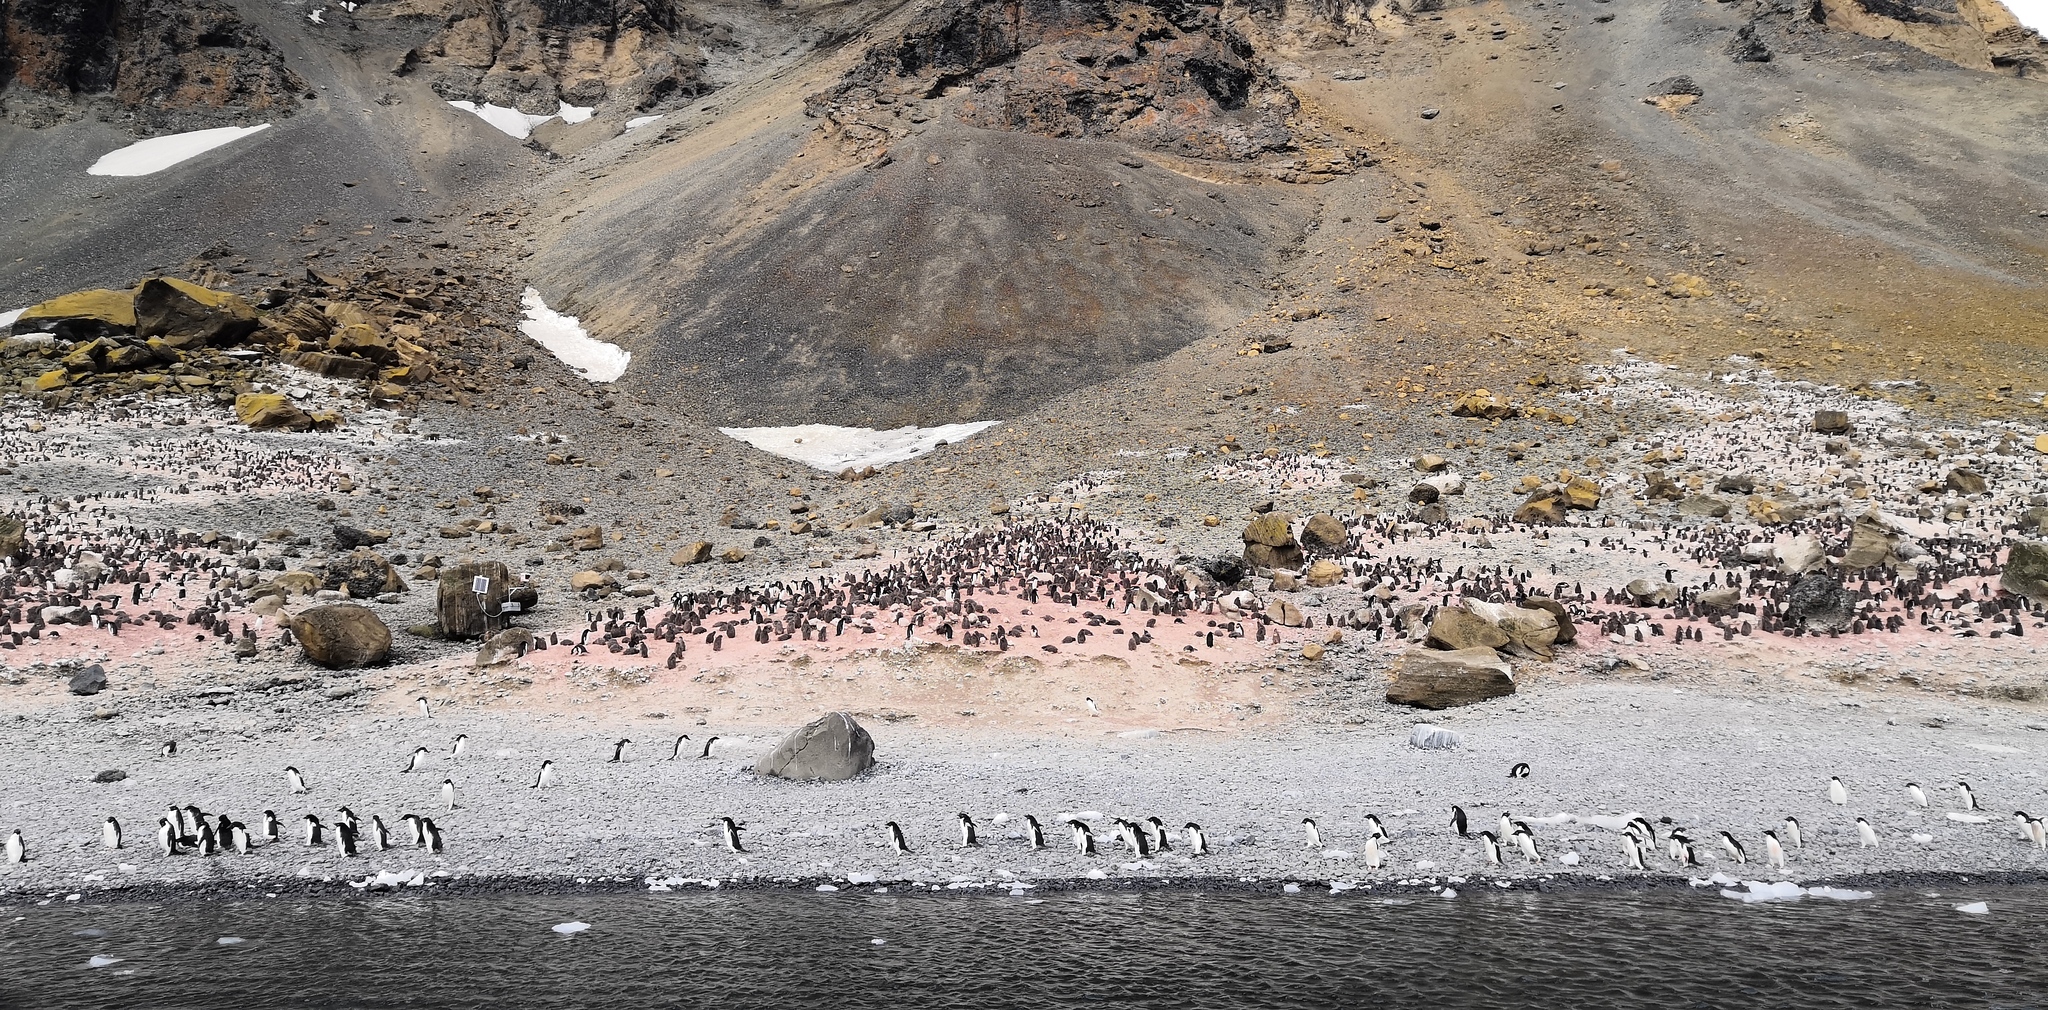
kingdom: Animalia
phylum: Chordata
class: Aves
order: Sphenisciformes
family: Spheniscidae
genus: Pygoscelis
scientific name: Pygoscelis adeliae
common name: Adelie penguin
